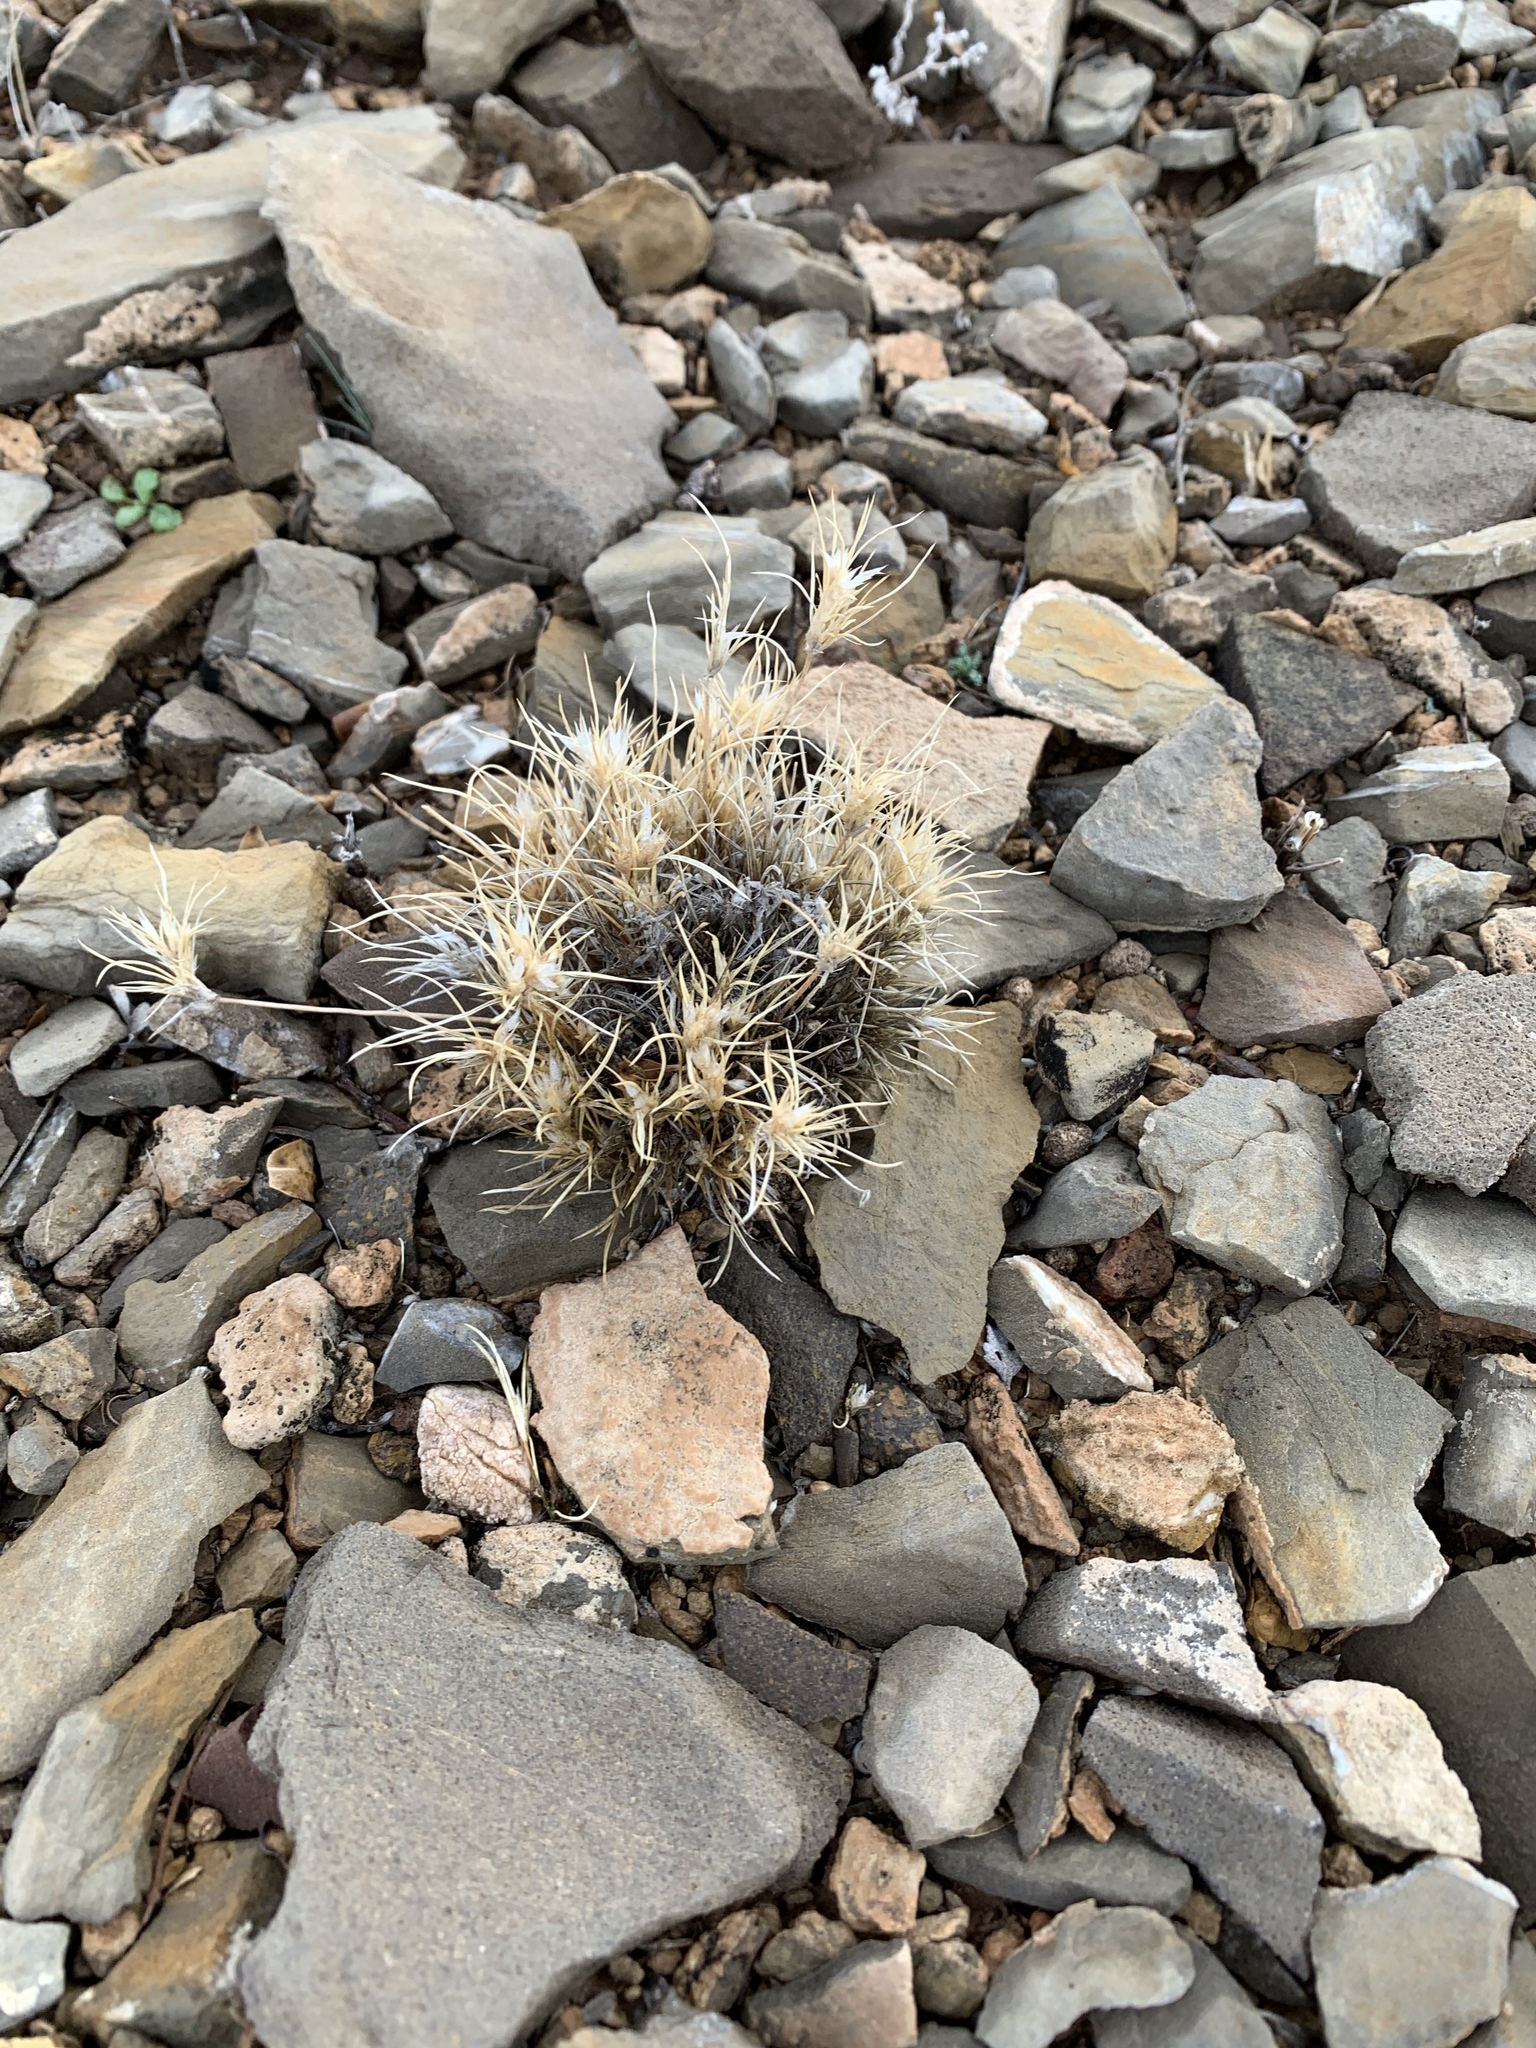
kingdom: Plantae
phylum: Tracheophyta
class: Liliopsida
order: Poales
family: Poaceae
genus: Dasyochloa
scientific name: Dasyochloa pulchella
